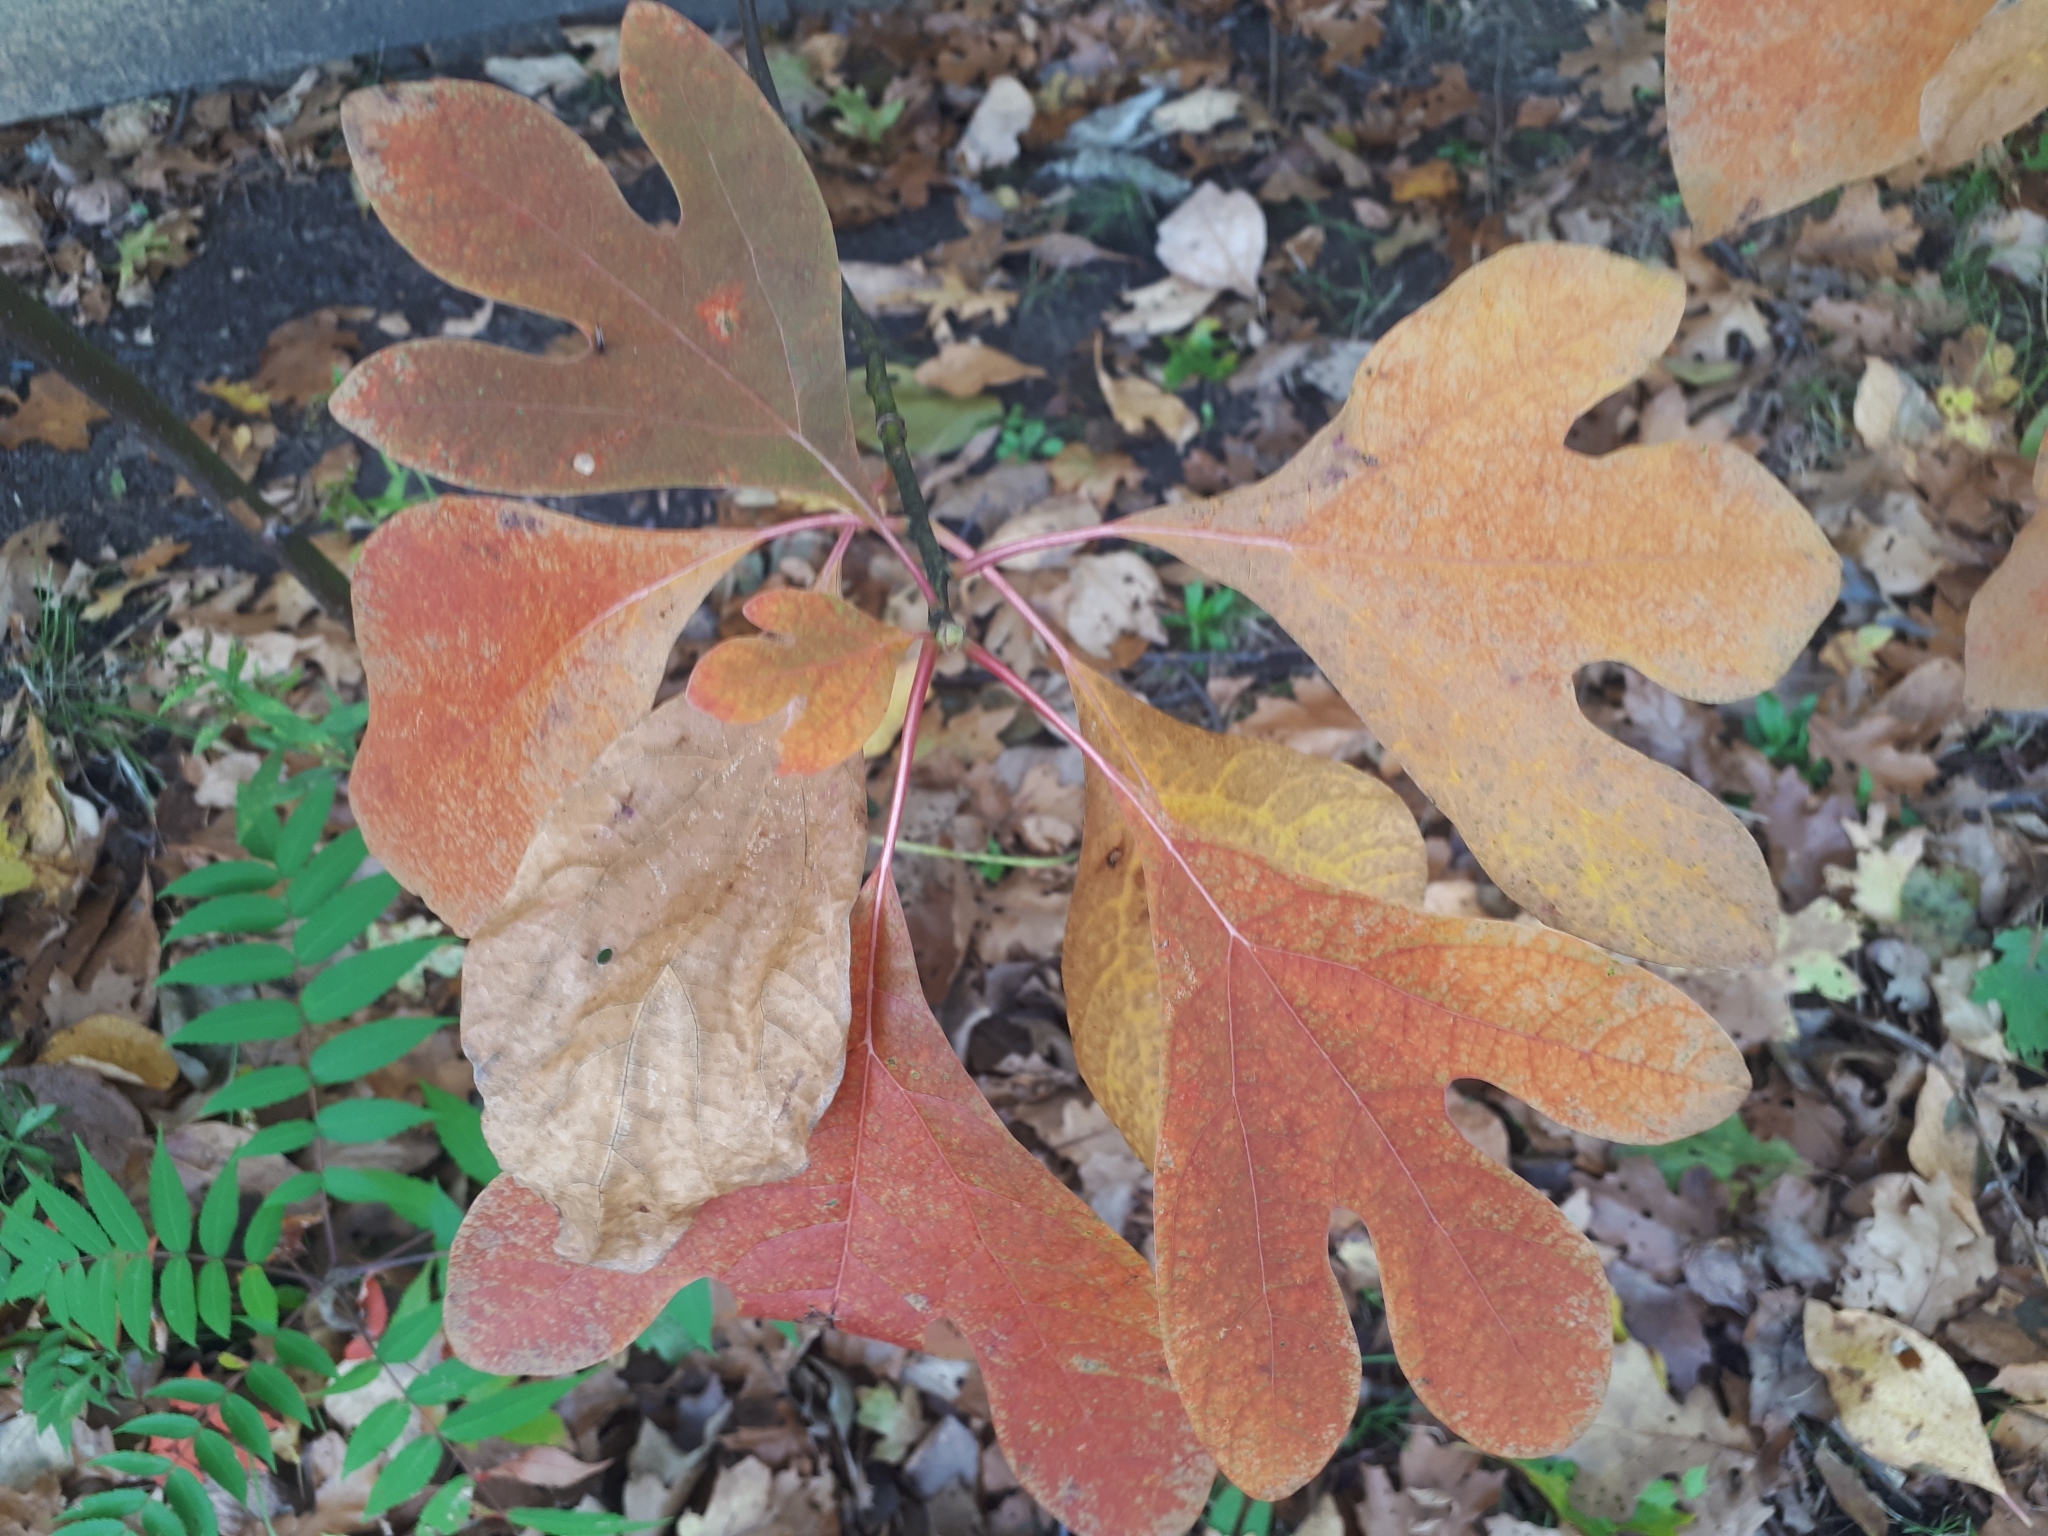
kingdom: Plantae
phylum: Tracheophyta
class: Magnoliopsida
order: Laurales
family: Lauraceae
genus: Sassafras
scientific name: Sassafras albidum
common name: Sassafras
